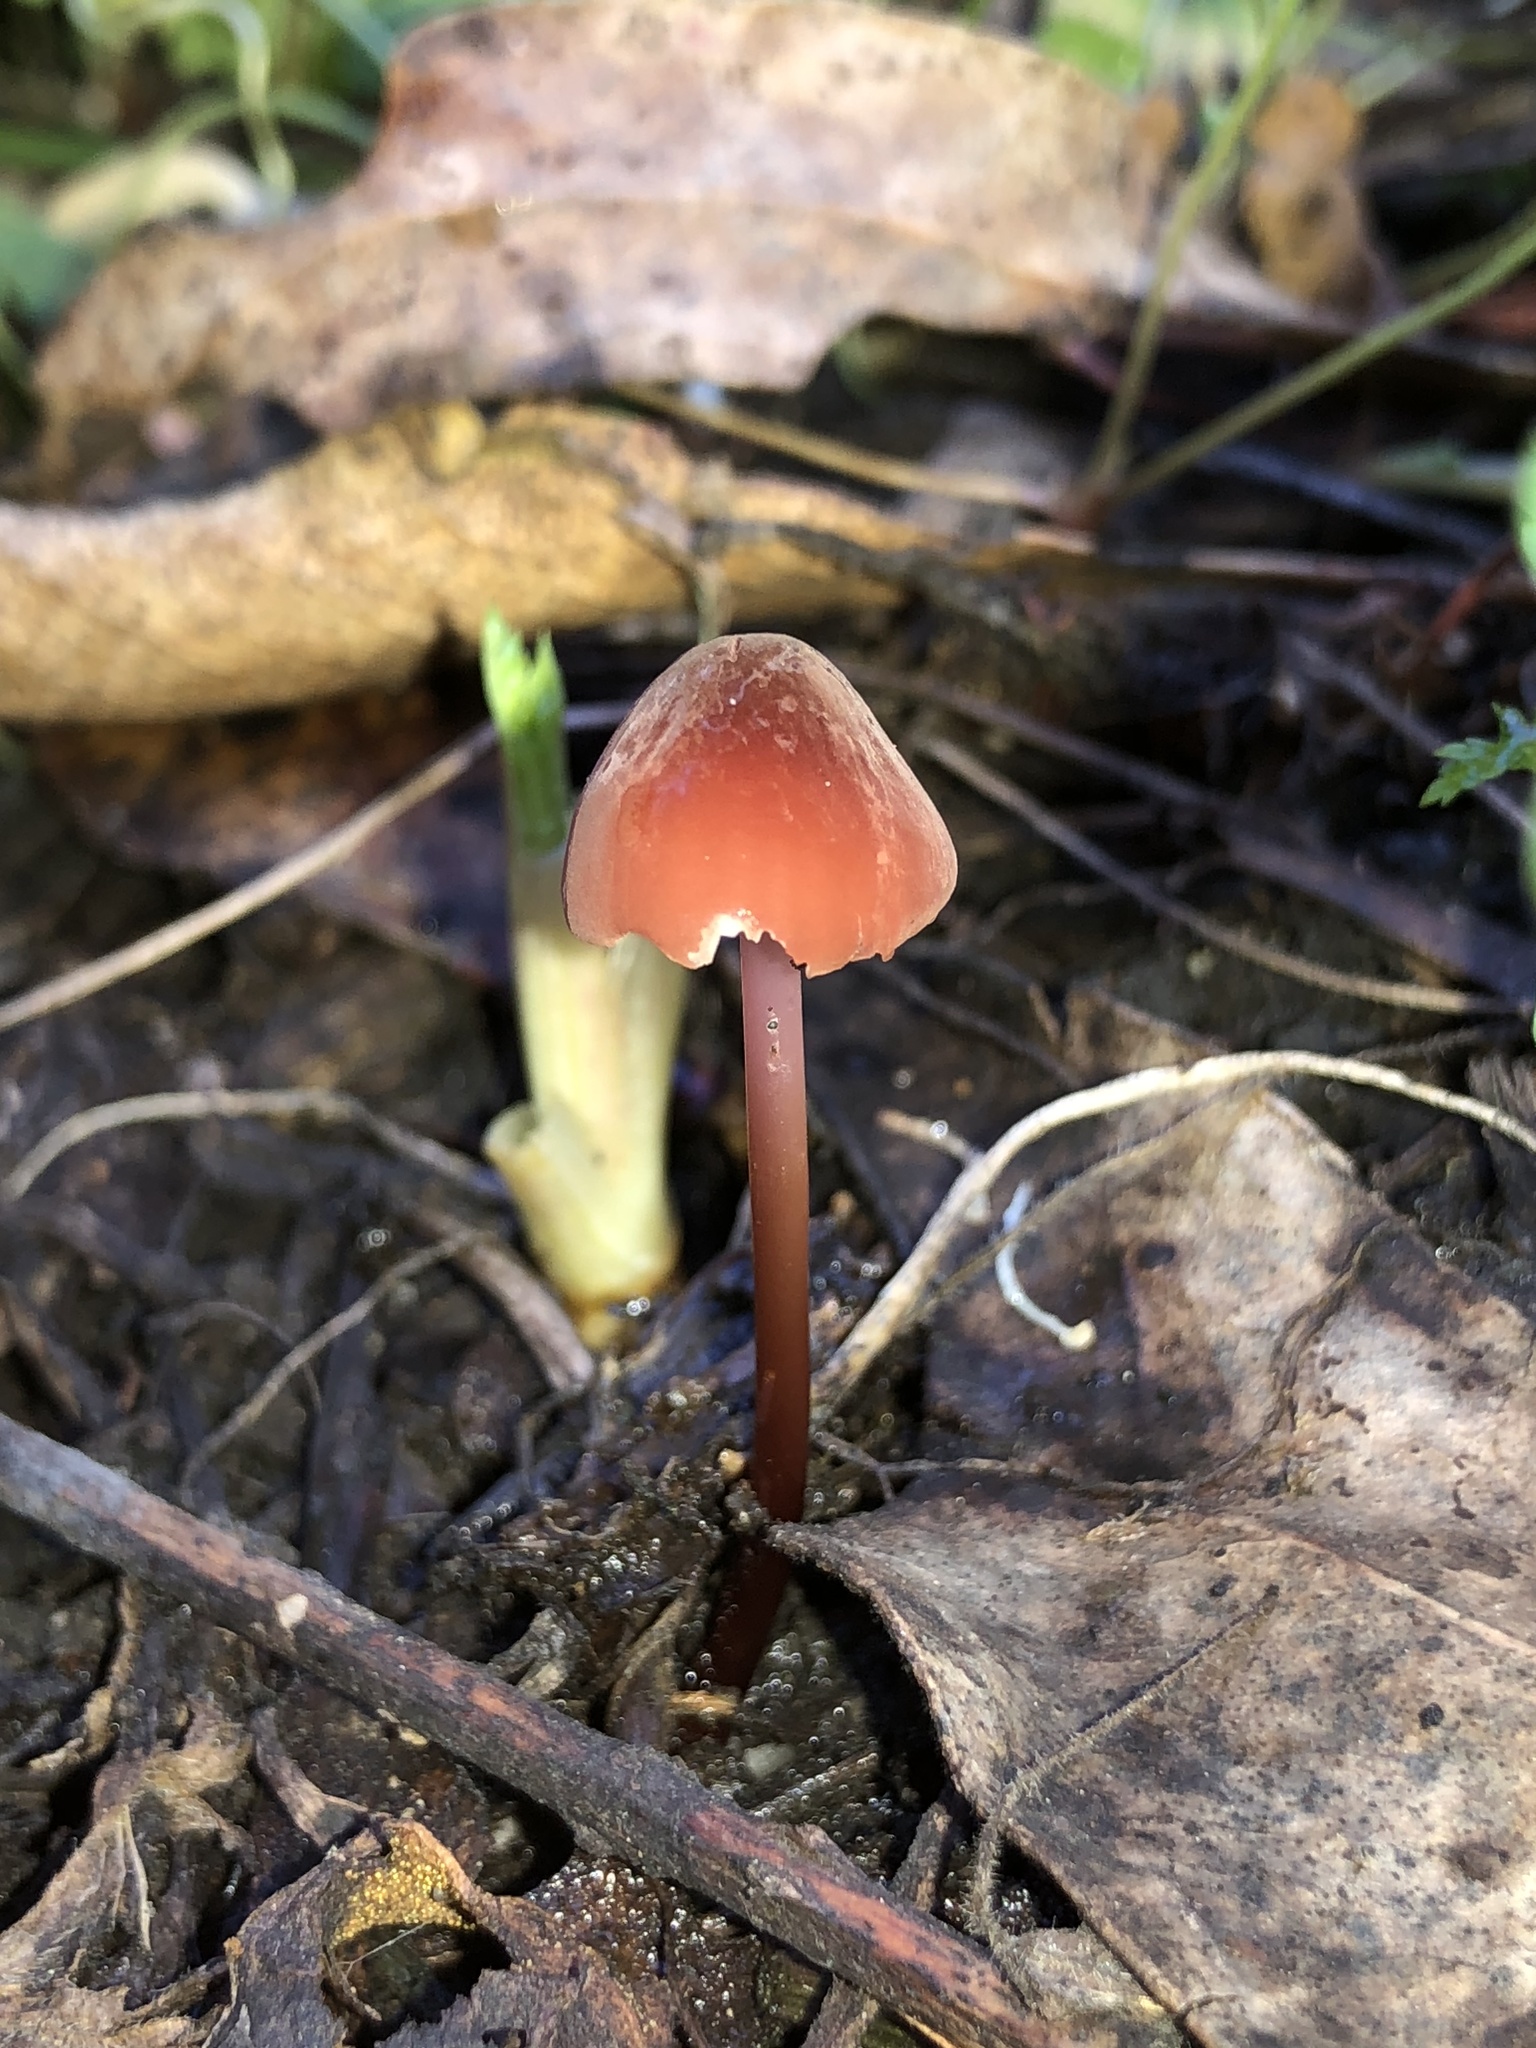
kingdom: Fungi
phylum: Basidiomycota
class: Agaricomycetes
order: Agaricales
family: Marasmiaceae
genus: Marasmius
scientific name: Marasmius plicatulus
